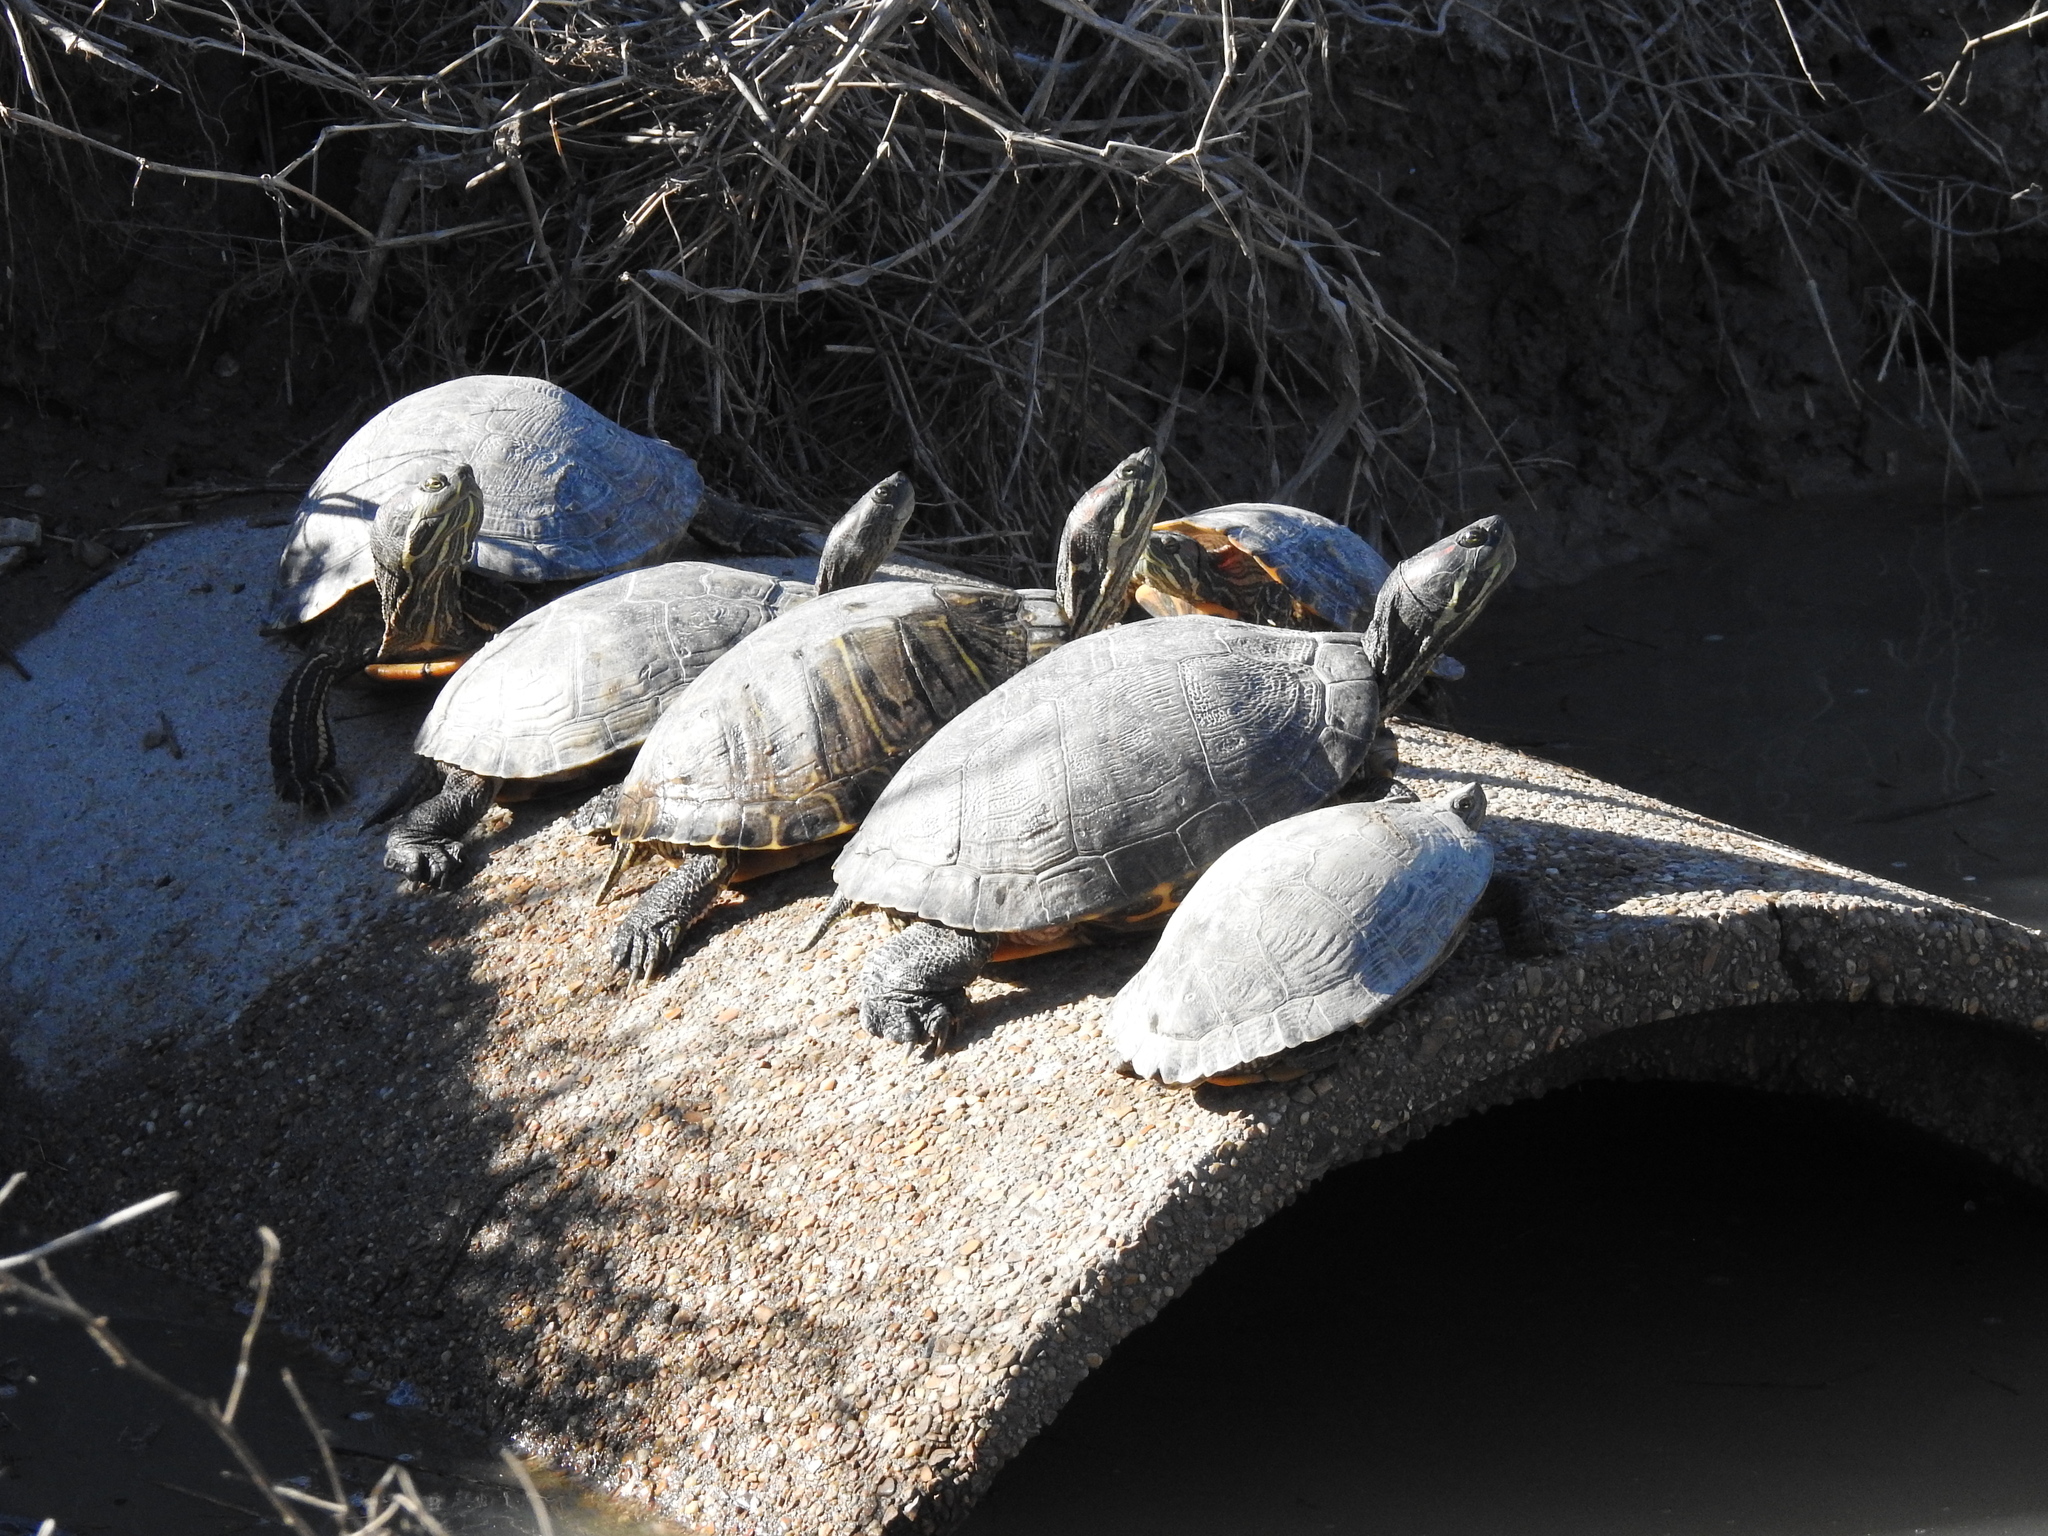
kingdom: Animalia
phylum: Chordata
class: Testudines
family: Emydidae
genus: Trachemys
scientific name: Trachemys scripta
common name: Slider
